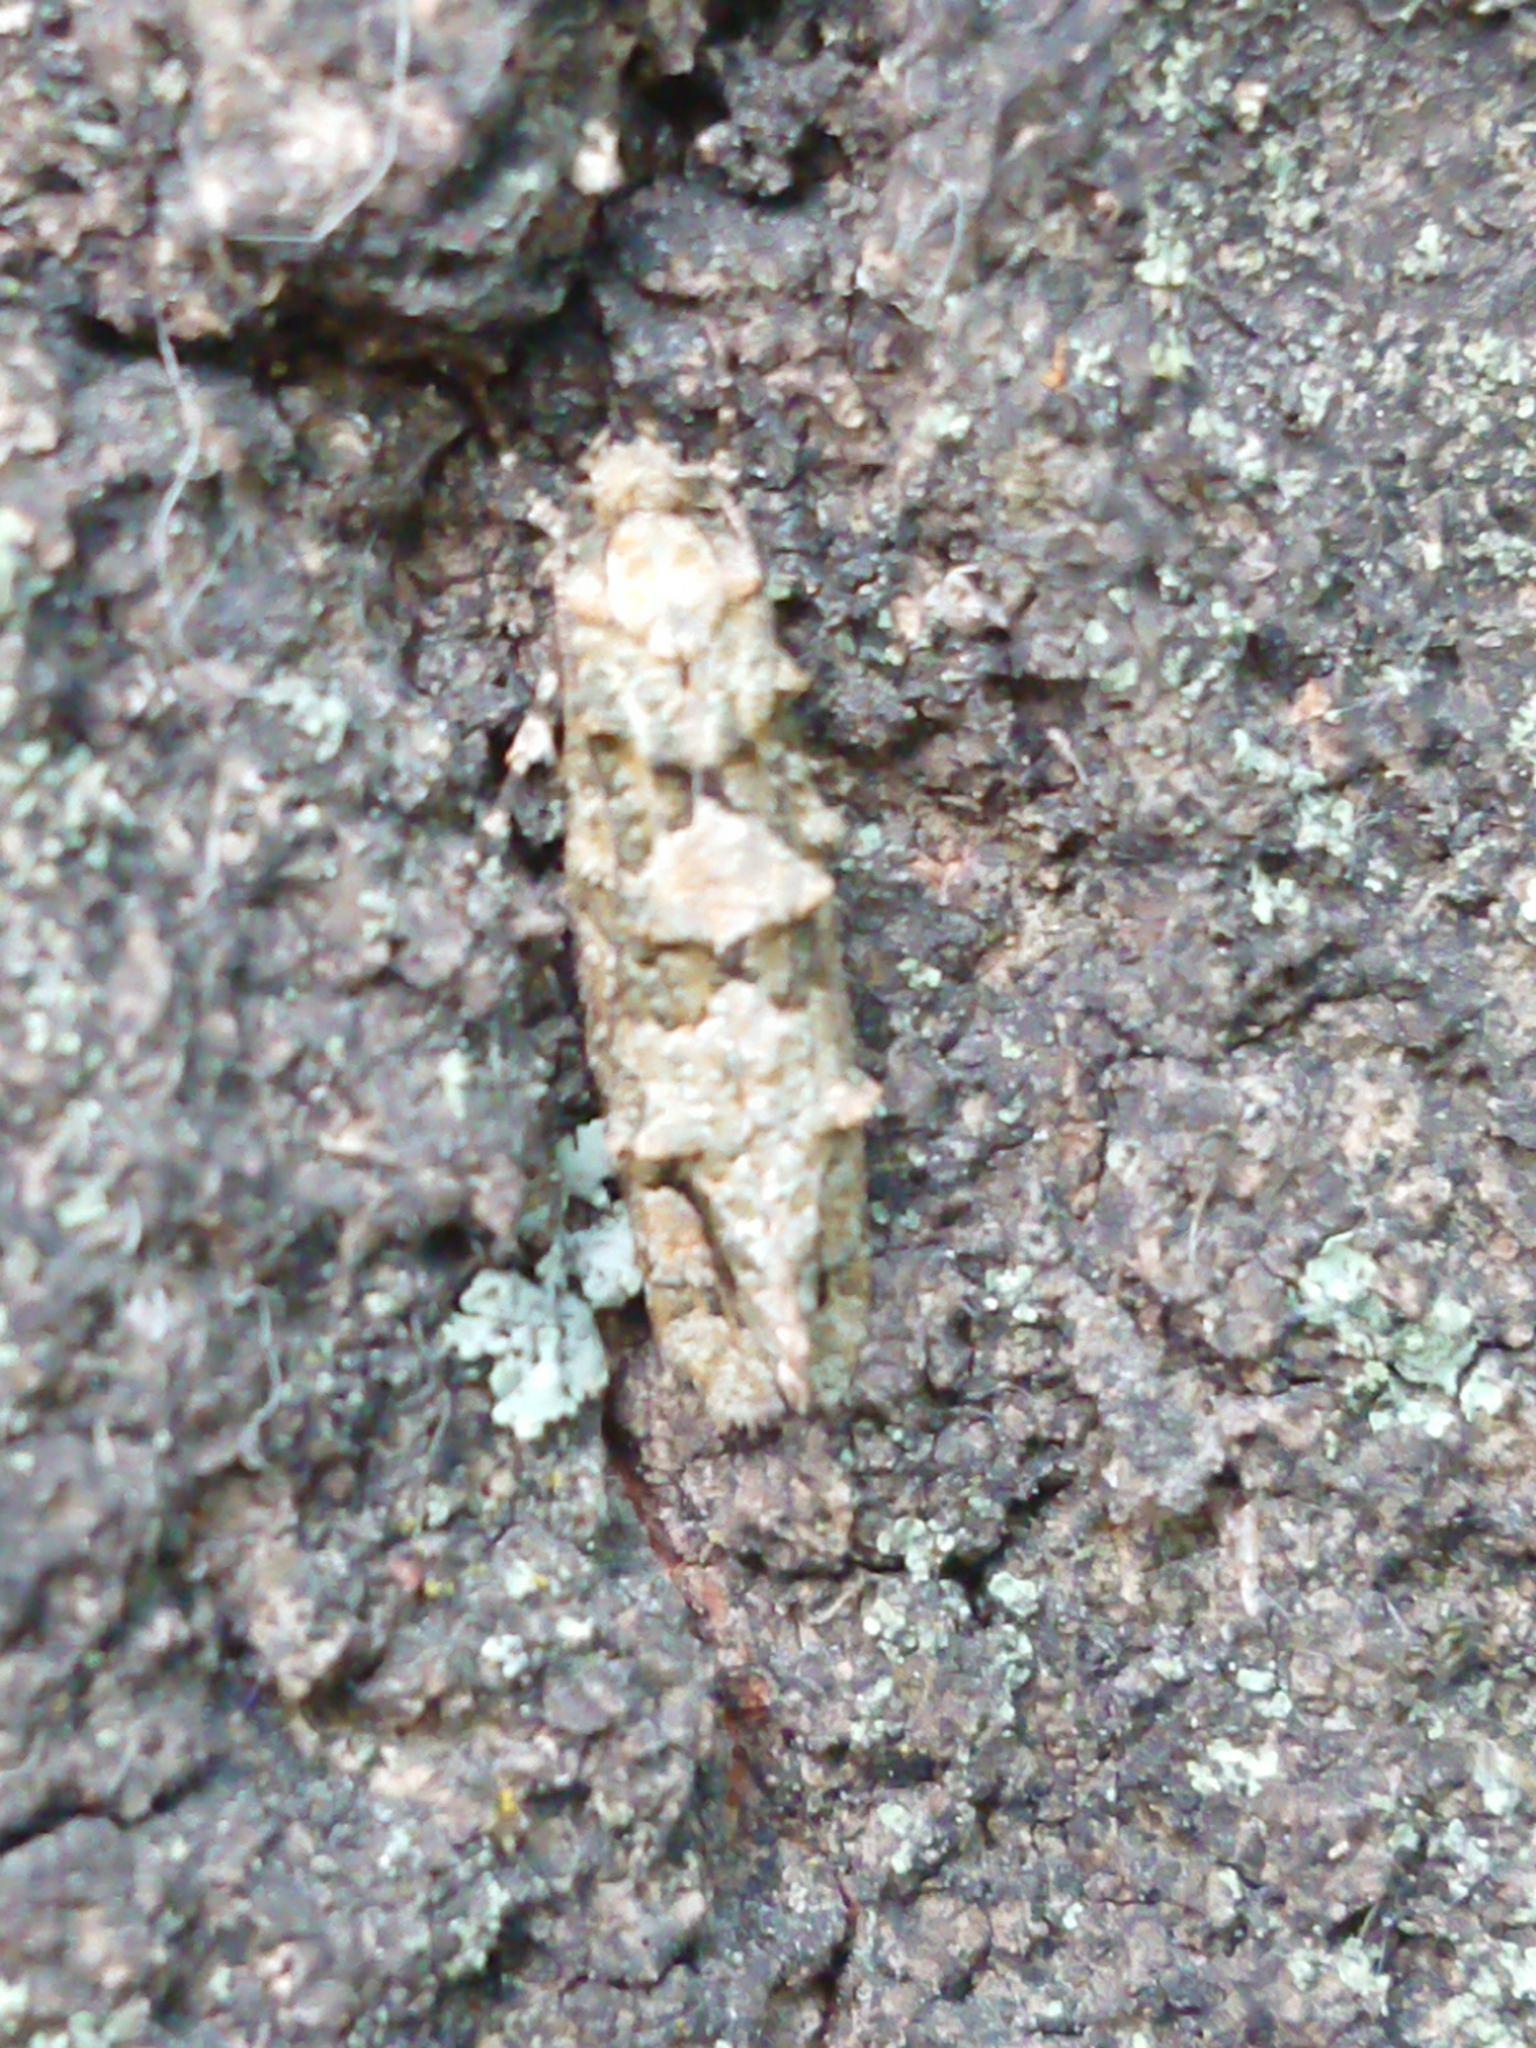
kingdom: Animalia
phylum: Arthropoda
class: Insecta
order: Lepidoptera
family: Tineidae
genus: Lysiphragma
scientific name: Lysiphragma howesii
